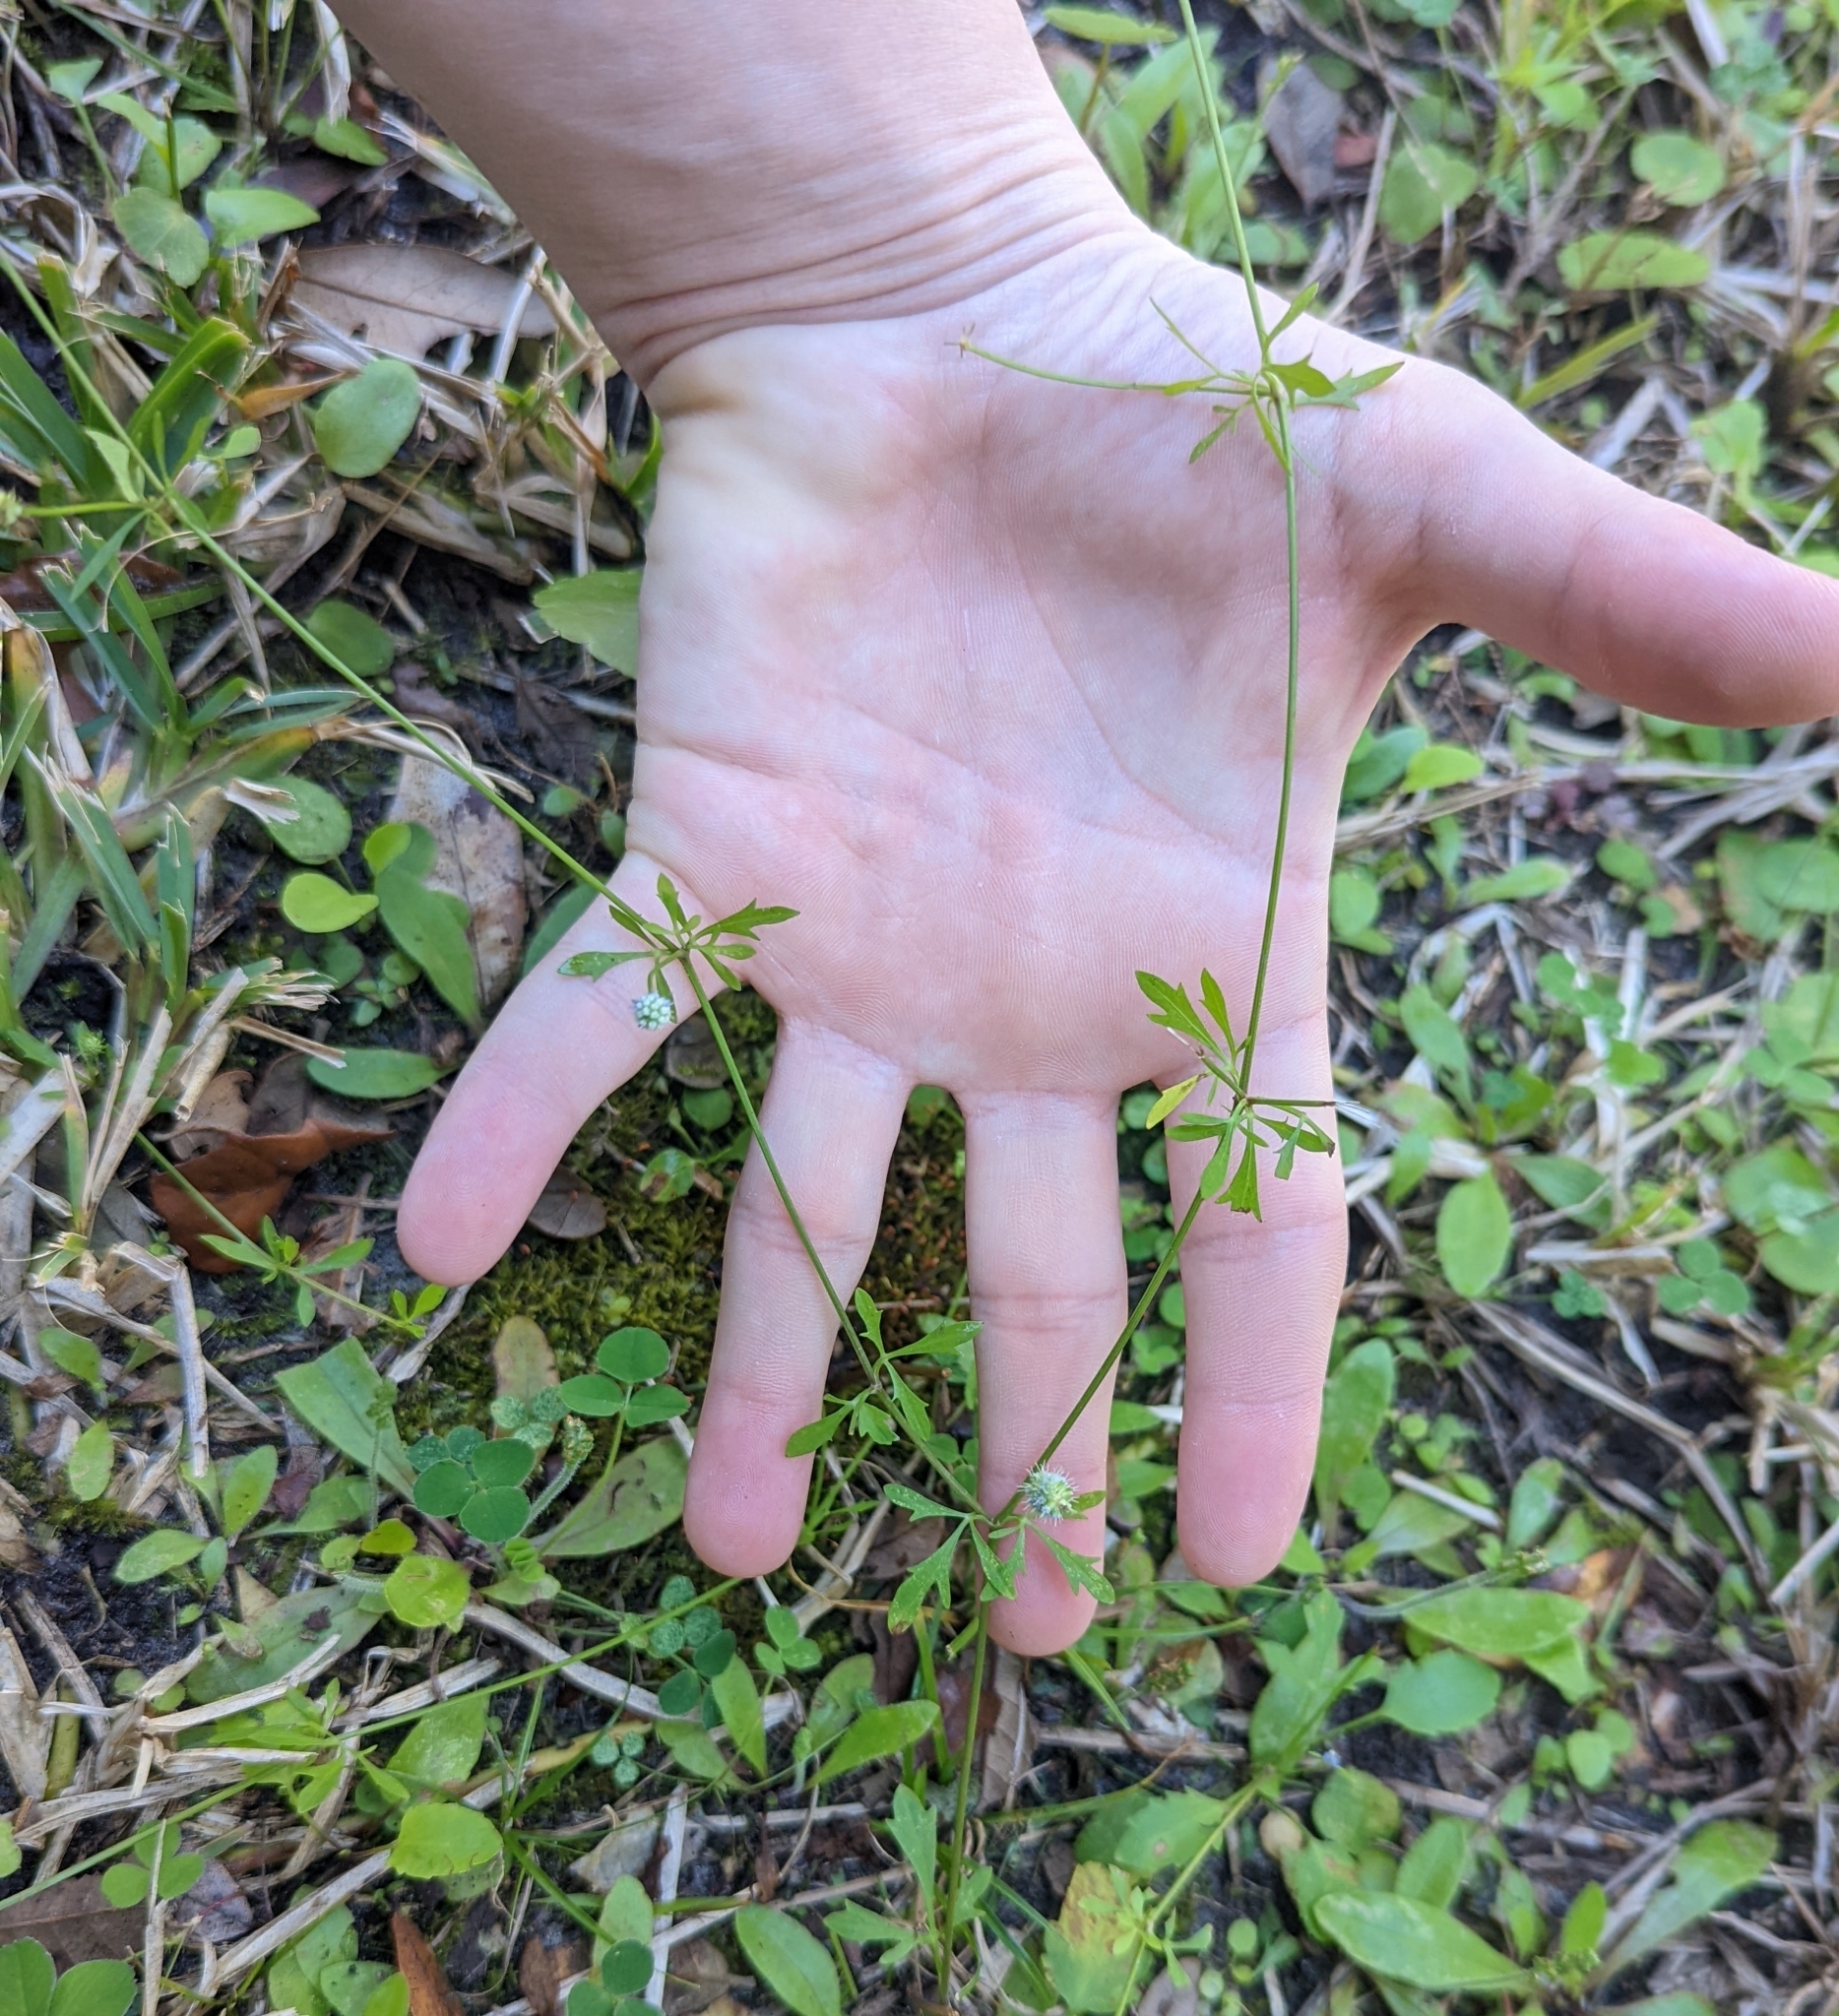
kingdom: Plantae
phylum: Tracheophyta
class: Magnoliopsida
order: Apiales
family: Apiaceae
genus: Eryngium
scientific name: Eryngium baldwinii
